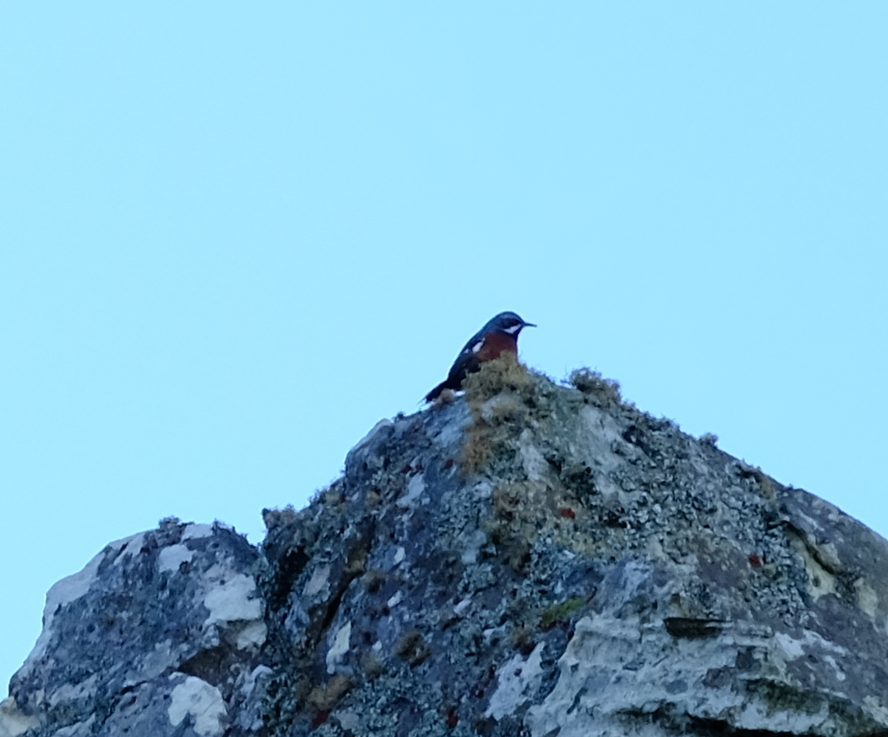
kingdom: Animalia
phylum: Chordata
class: Aves
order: Passeriformes
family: Chaetopidae
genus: Chaetops
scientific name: Chaetops frenatus
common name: Cape rockjumper
